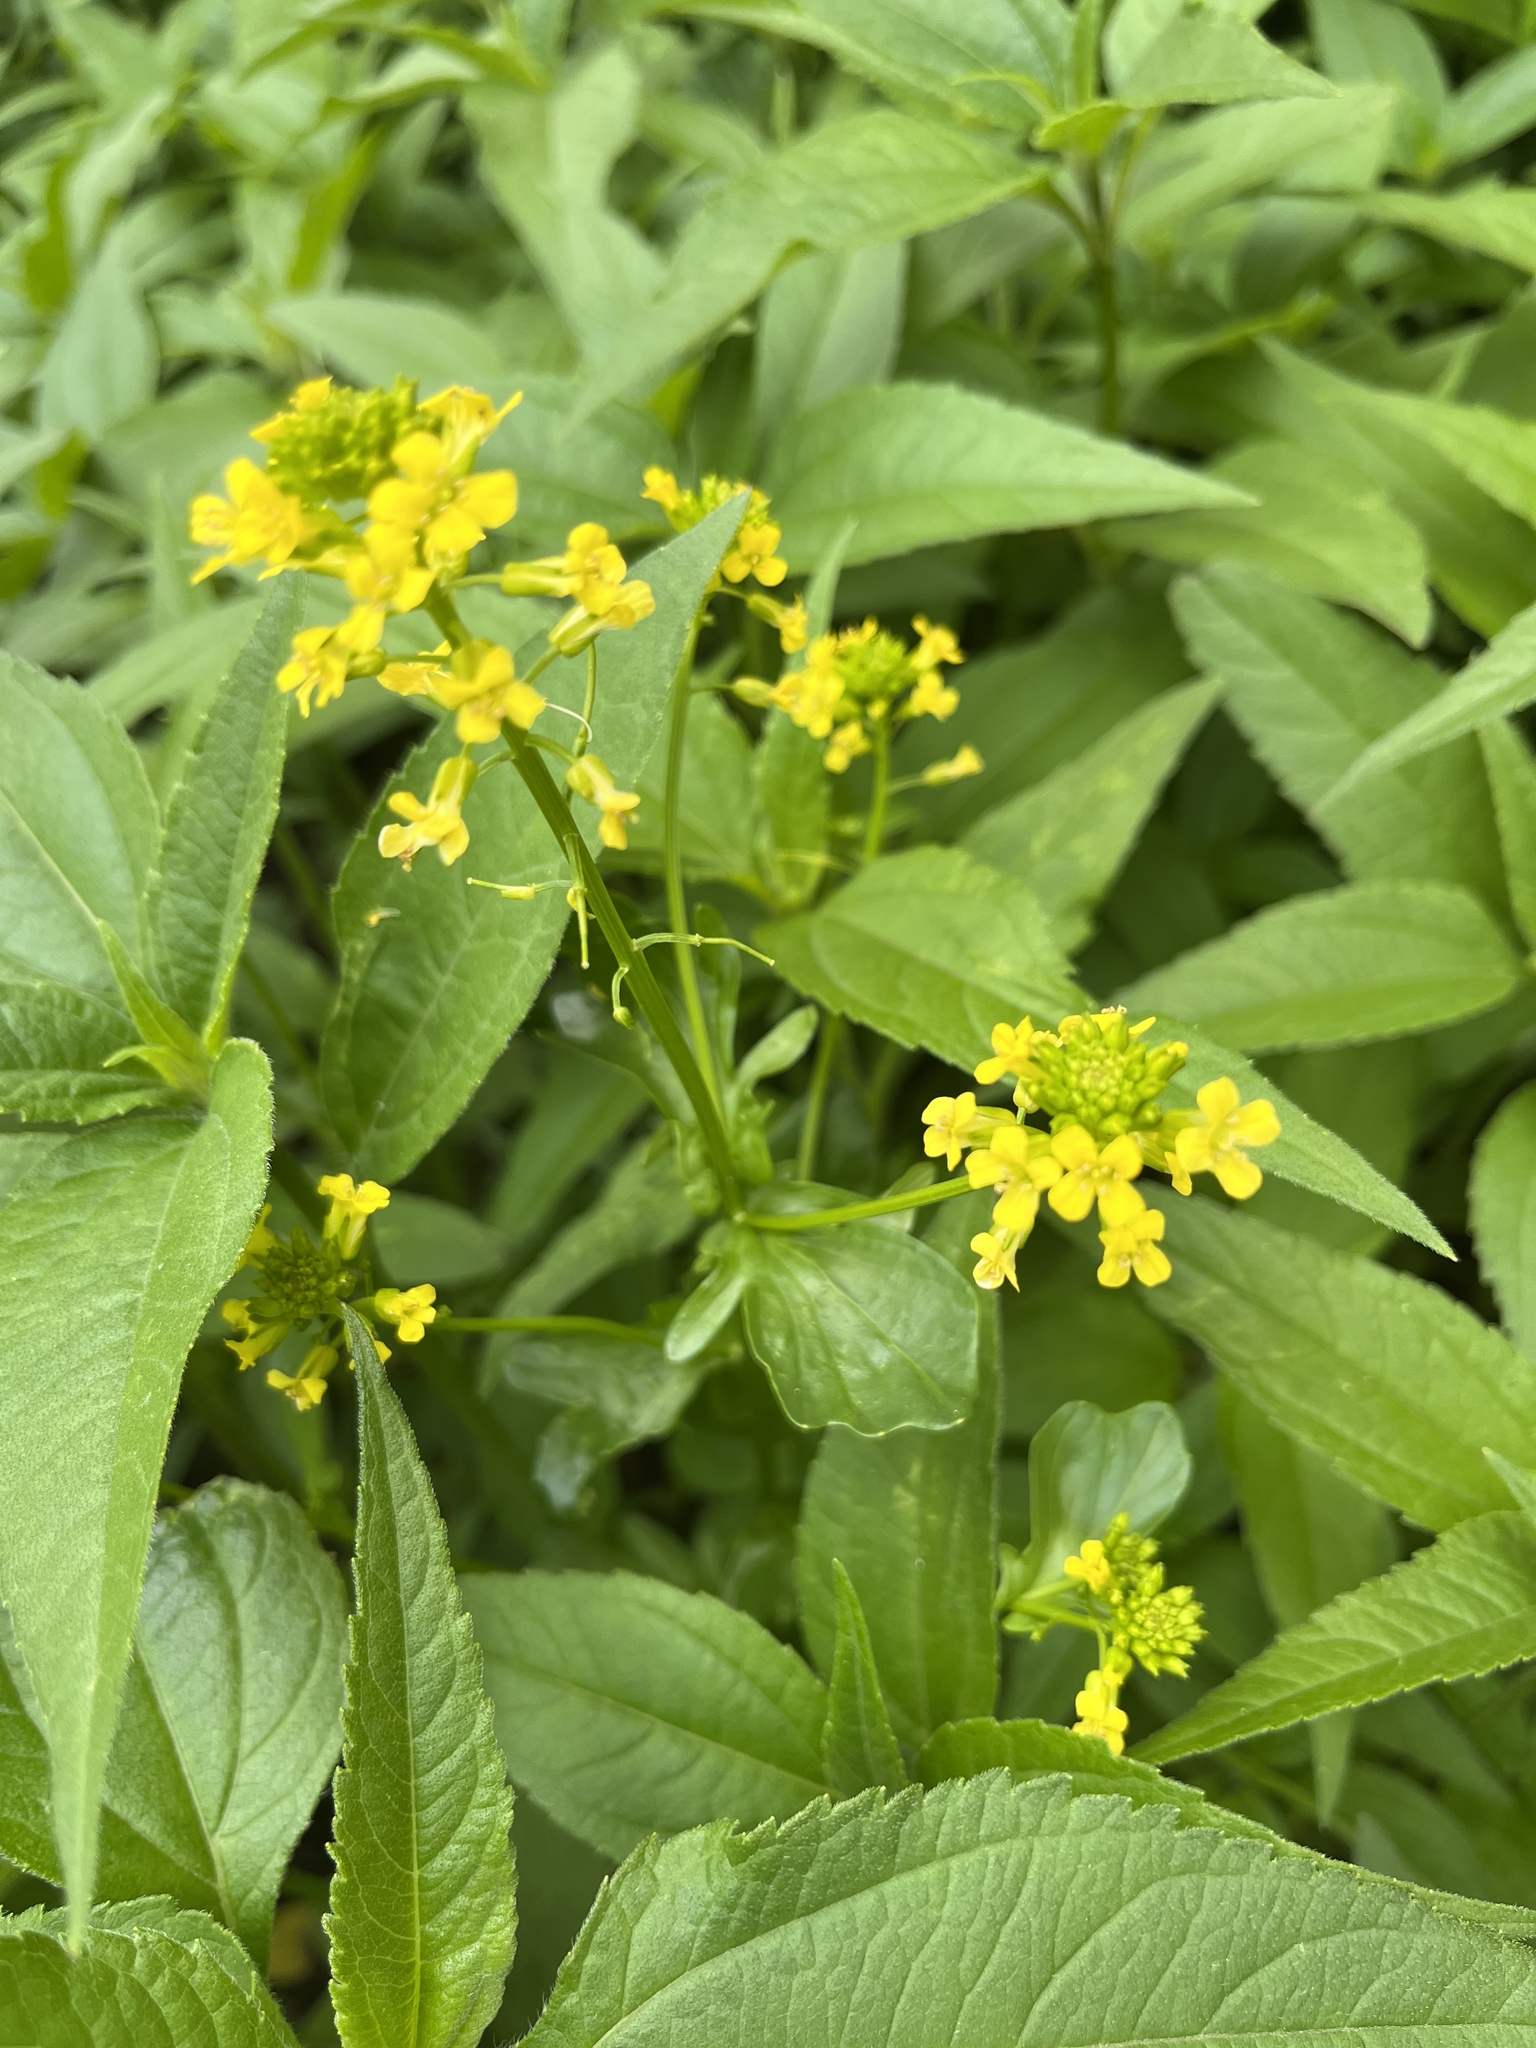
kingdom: Plantae
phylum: Tracheophyta
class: Magnoliopsida
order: Brassicales
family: Brassicaceae
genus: Barbarea
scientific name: Barbarea vulgaris
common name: Cressy-greens
